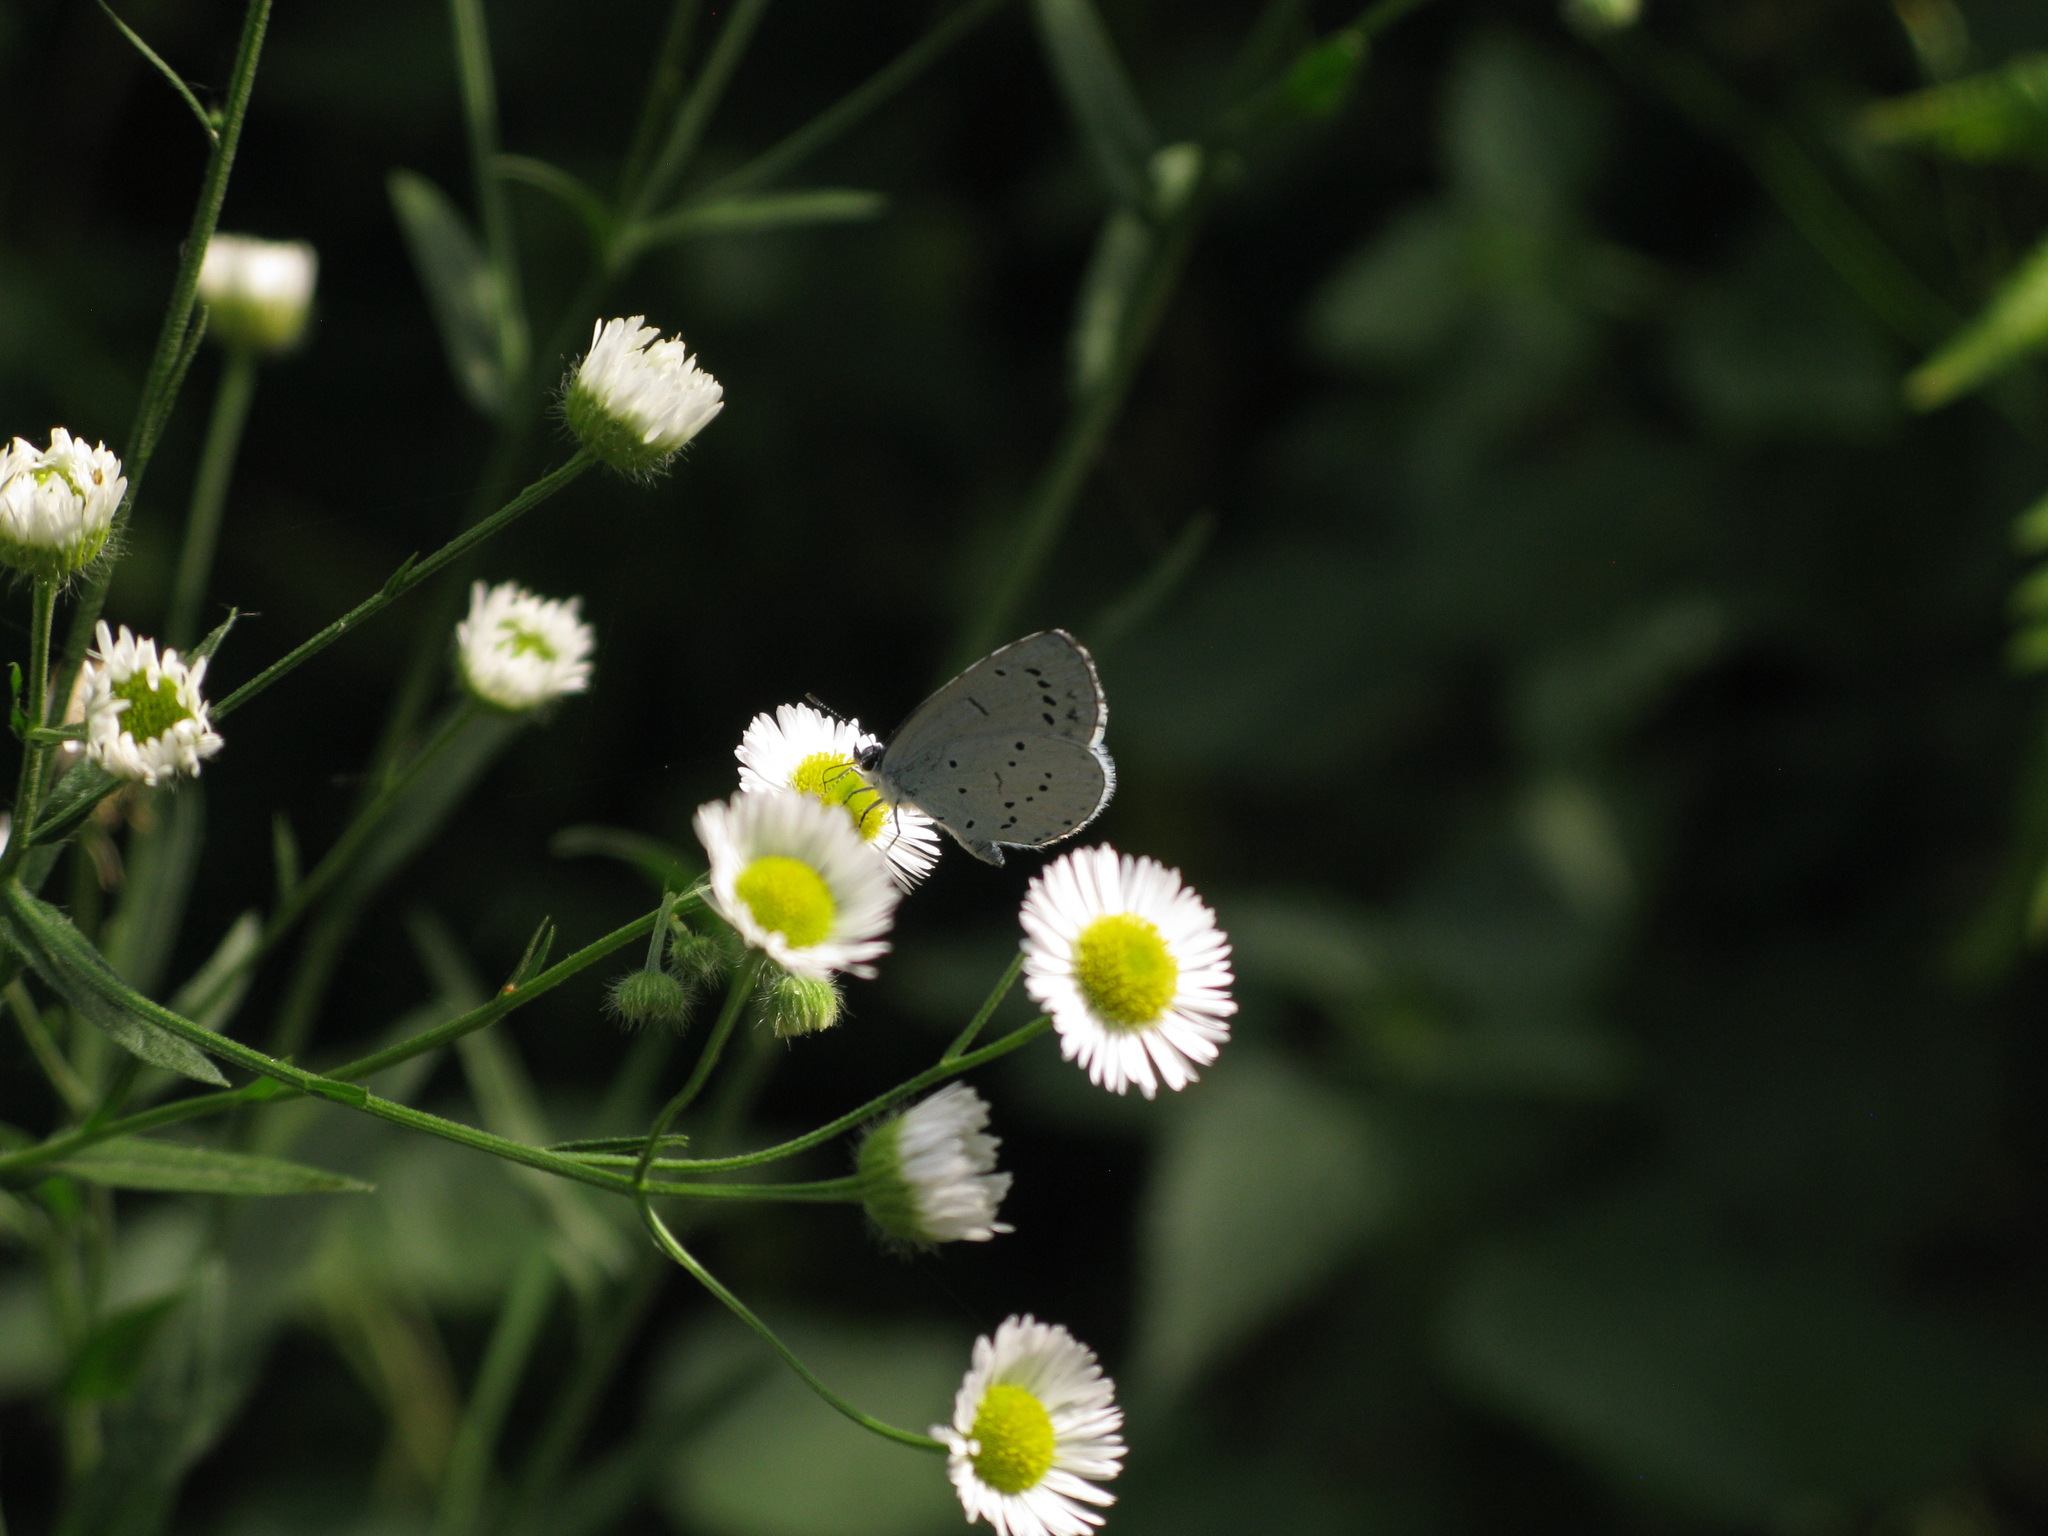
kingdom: Animalia
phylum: Arthropoda
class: Insecta
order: Lepidoptera
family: Lycaenidae
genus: Celastrina
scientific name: Celastrina argiolus
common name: Holly blue
